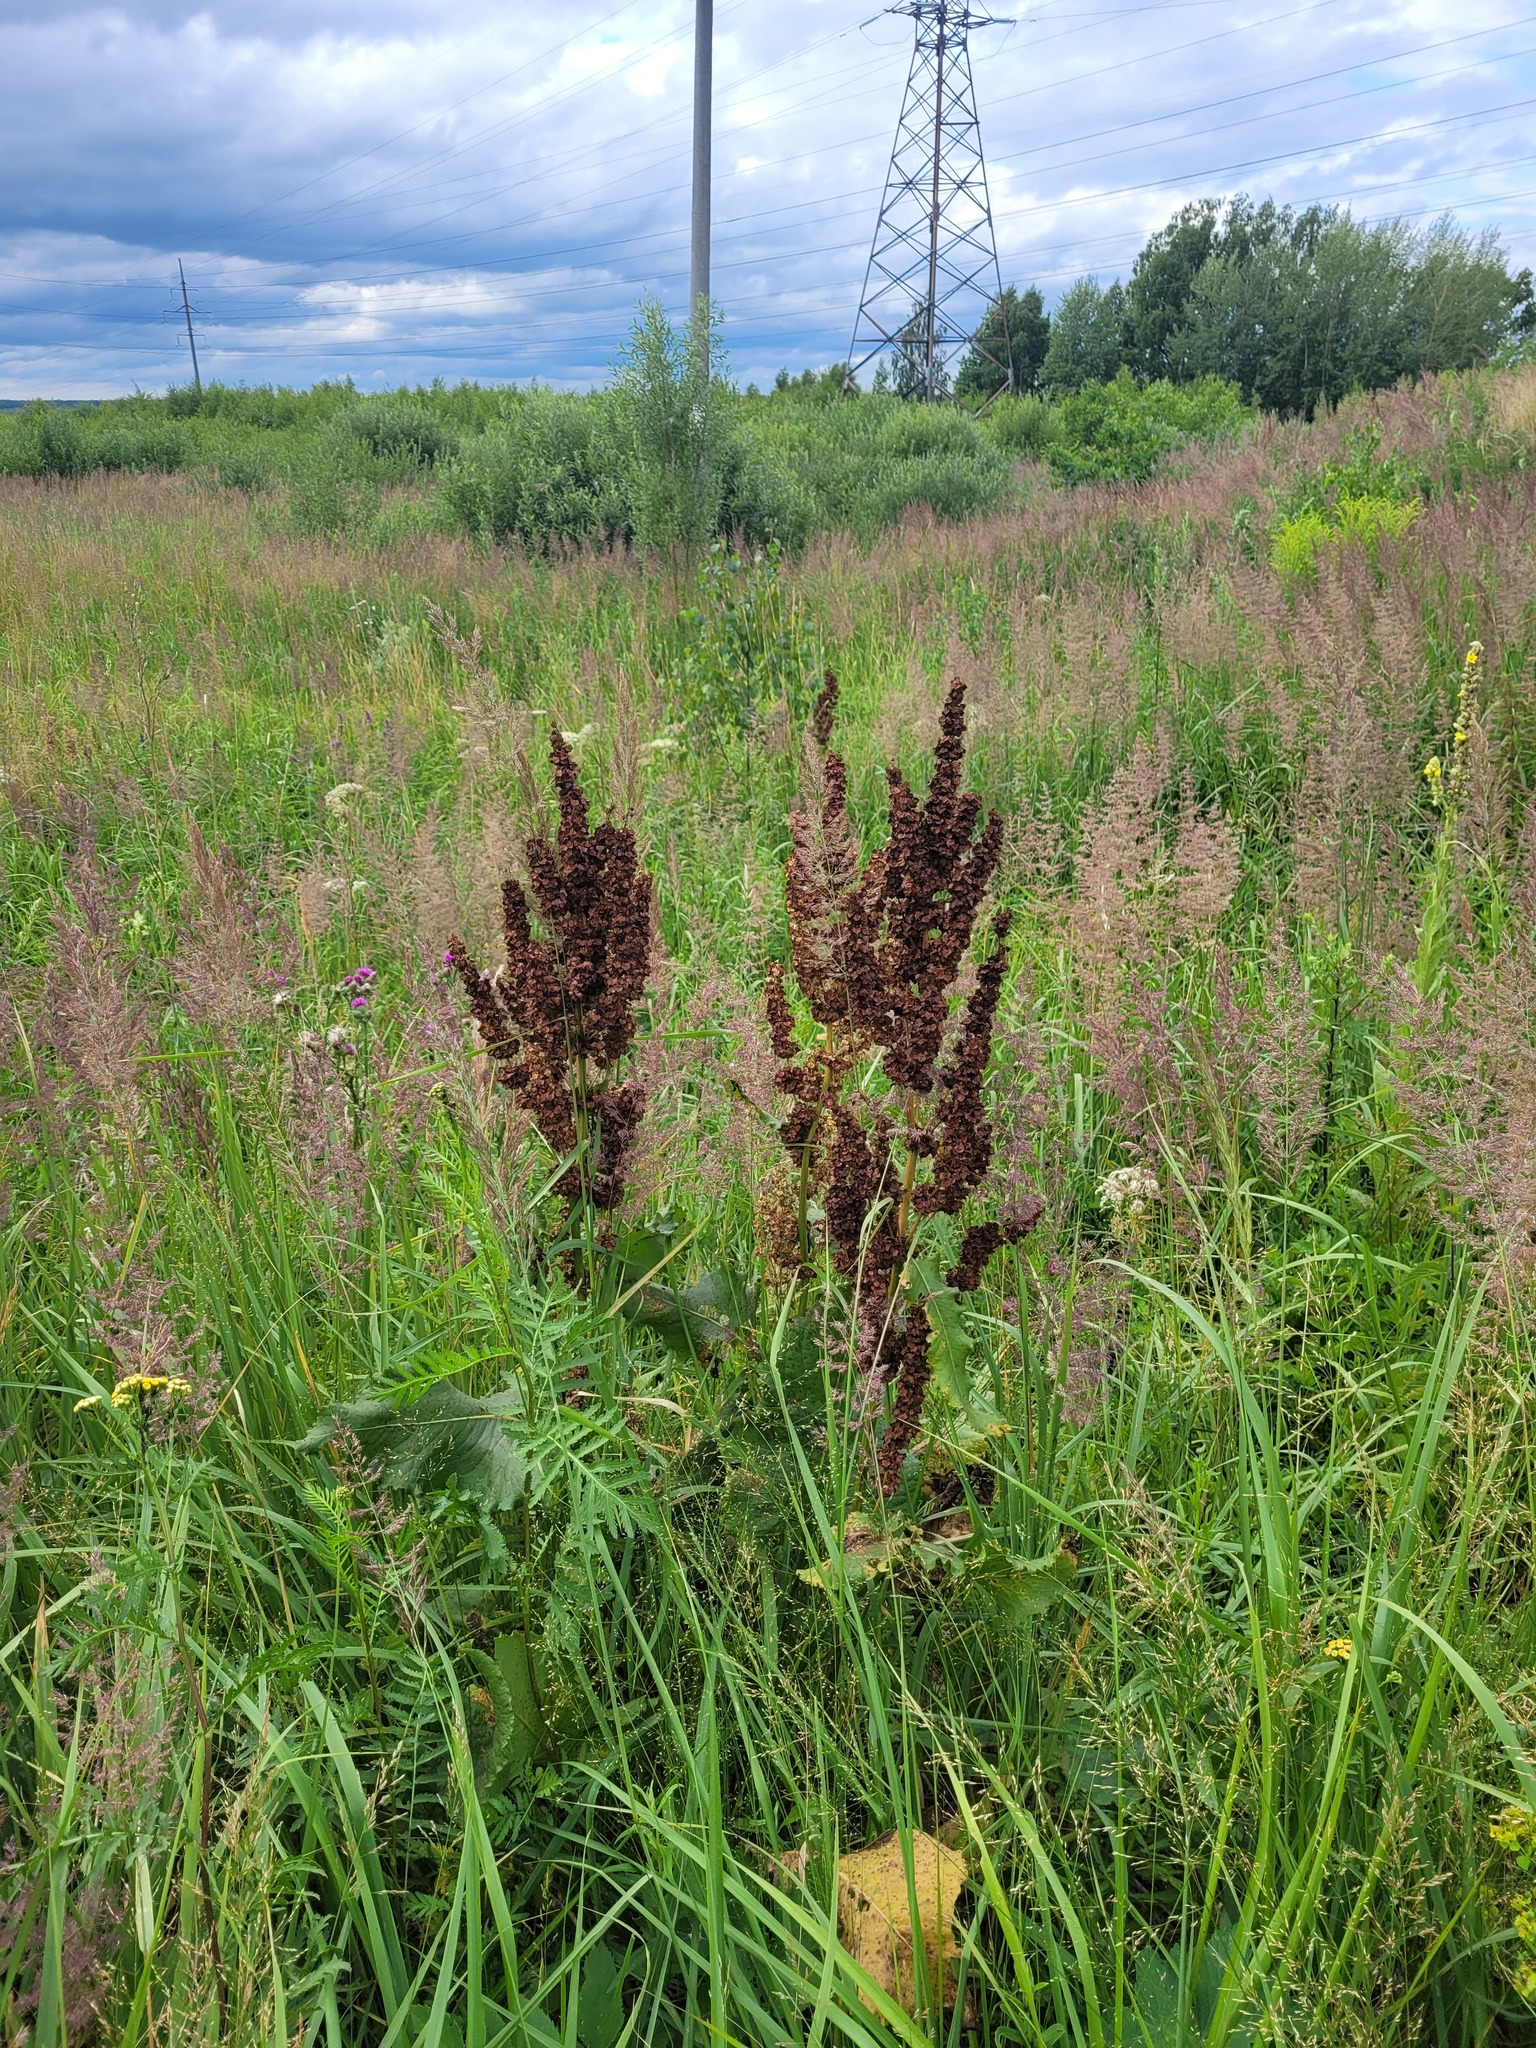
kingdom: Plantae
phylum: Tracheophyta
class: Magnoliopsida
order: Caryophyllales
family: Polygonaceae
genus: Rumex
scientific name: Rumex confertus
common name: Russian dock
